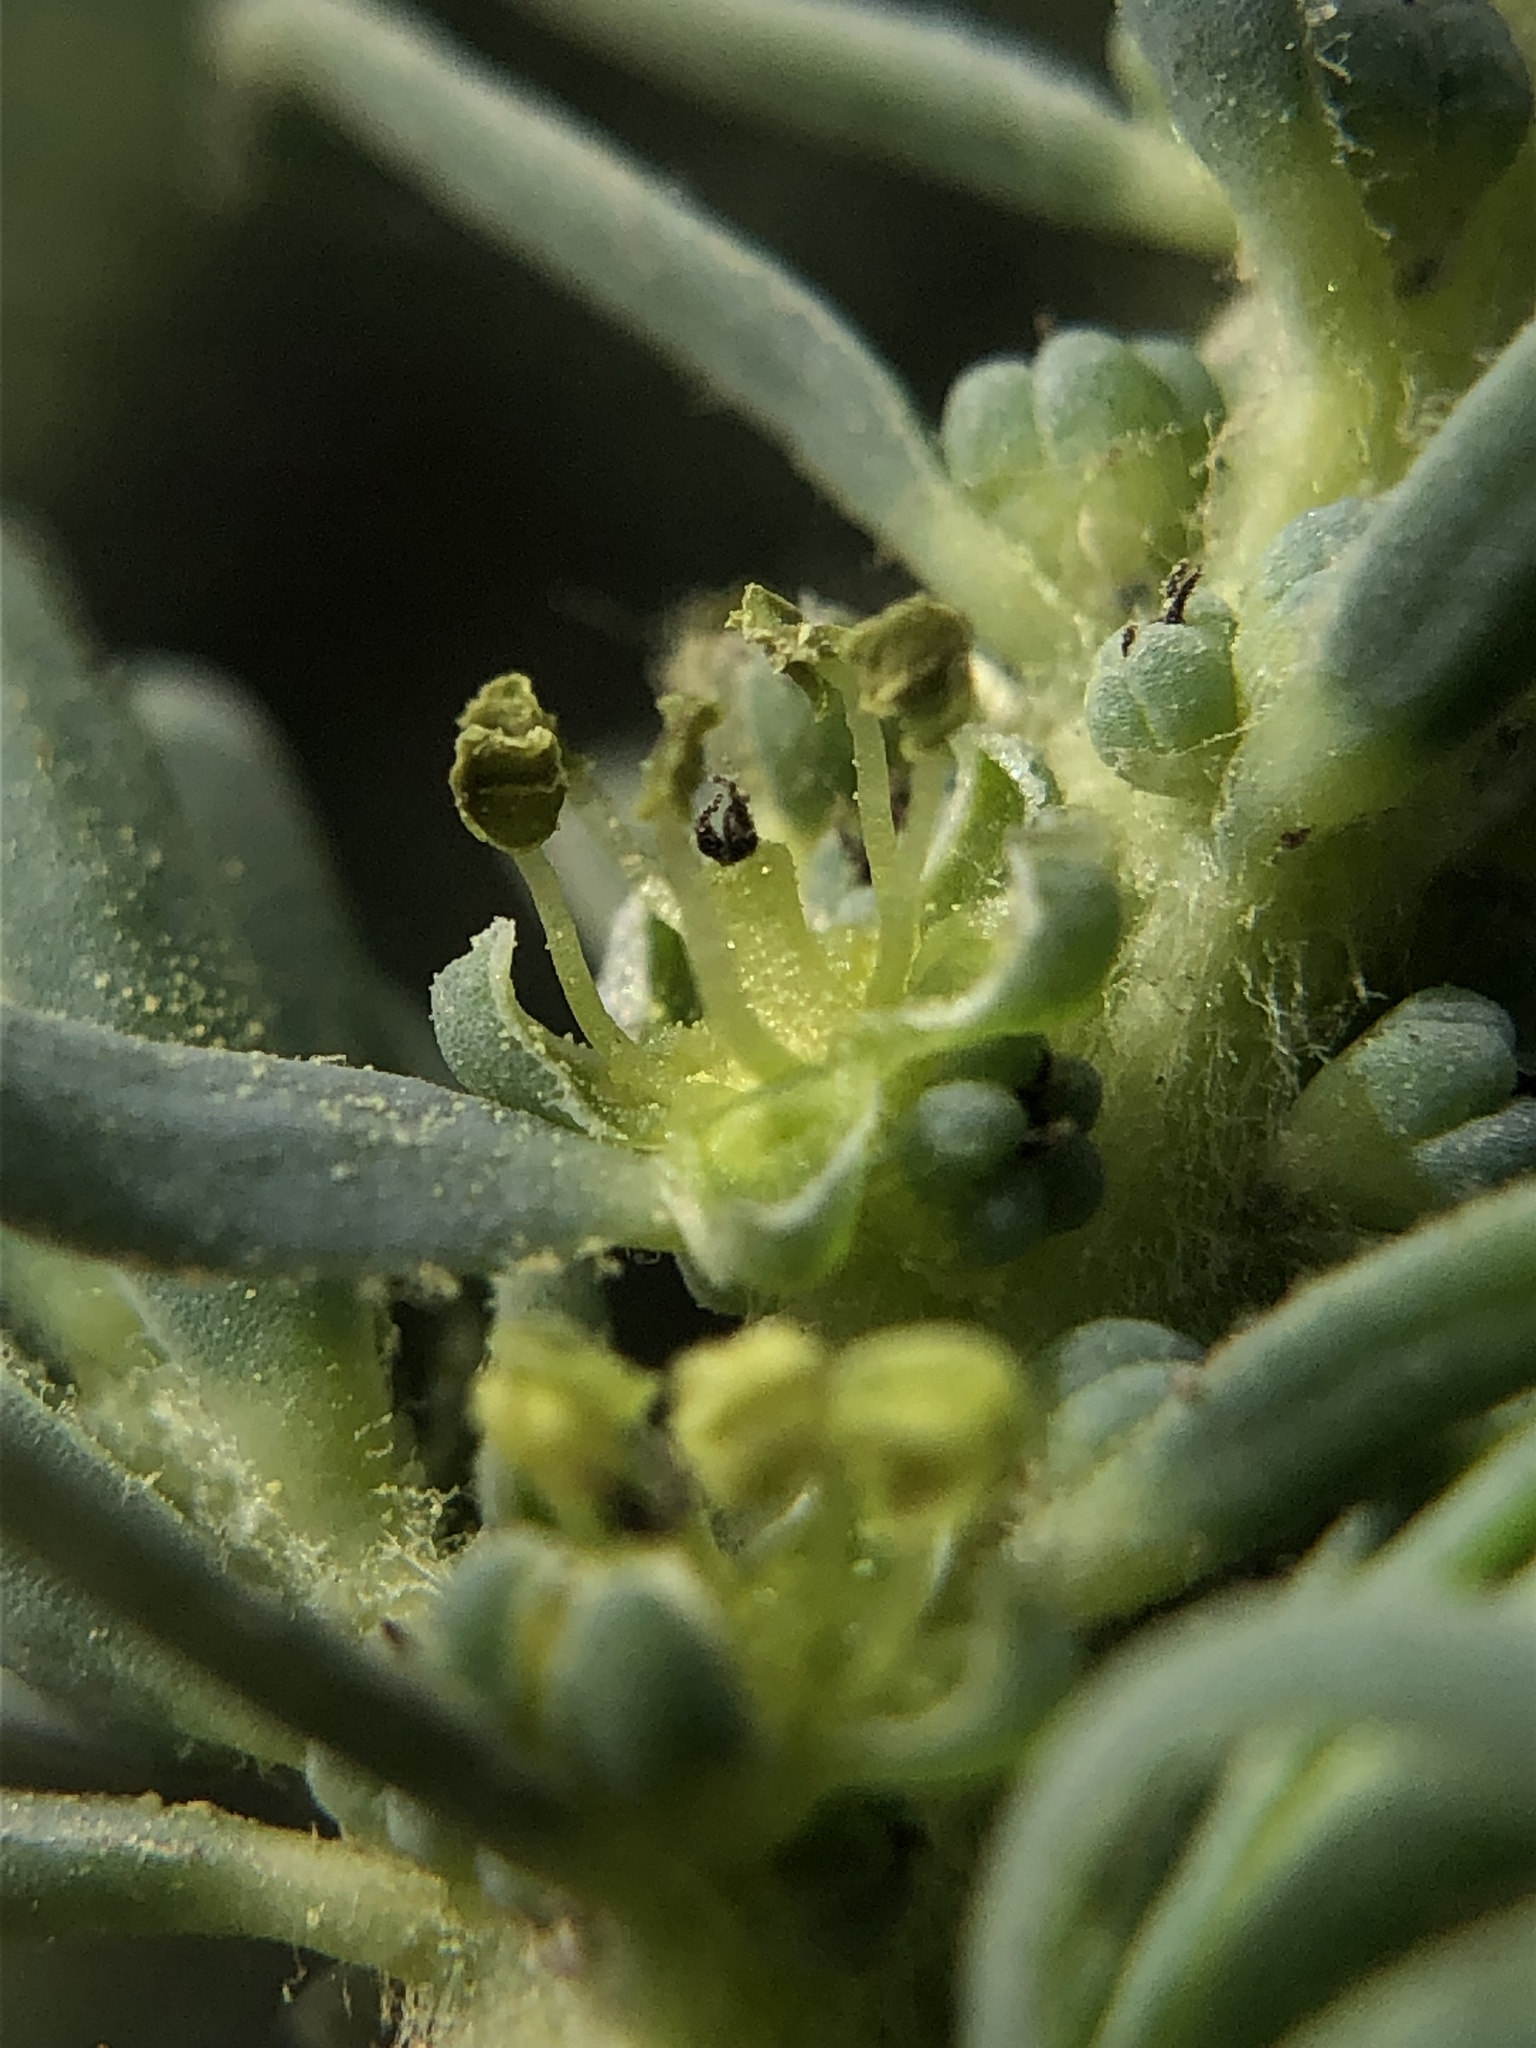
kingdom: Plantae
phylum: Tracheophyta
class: Magnoliopsida
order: Caryophyllales
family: Amaranthaceae
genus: Suaeda
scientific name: Suaeda californica
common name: California sea-blite
